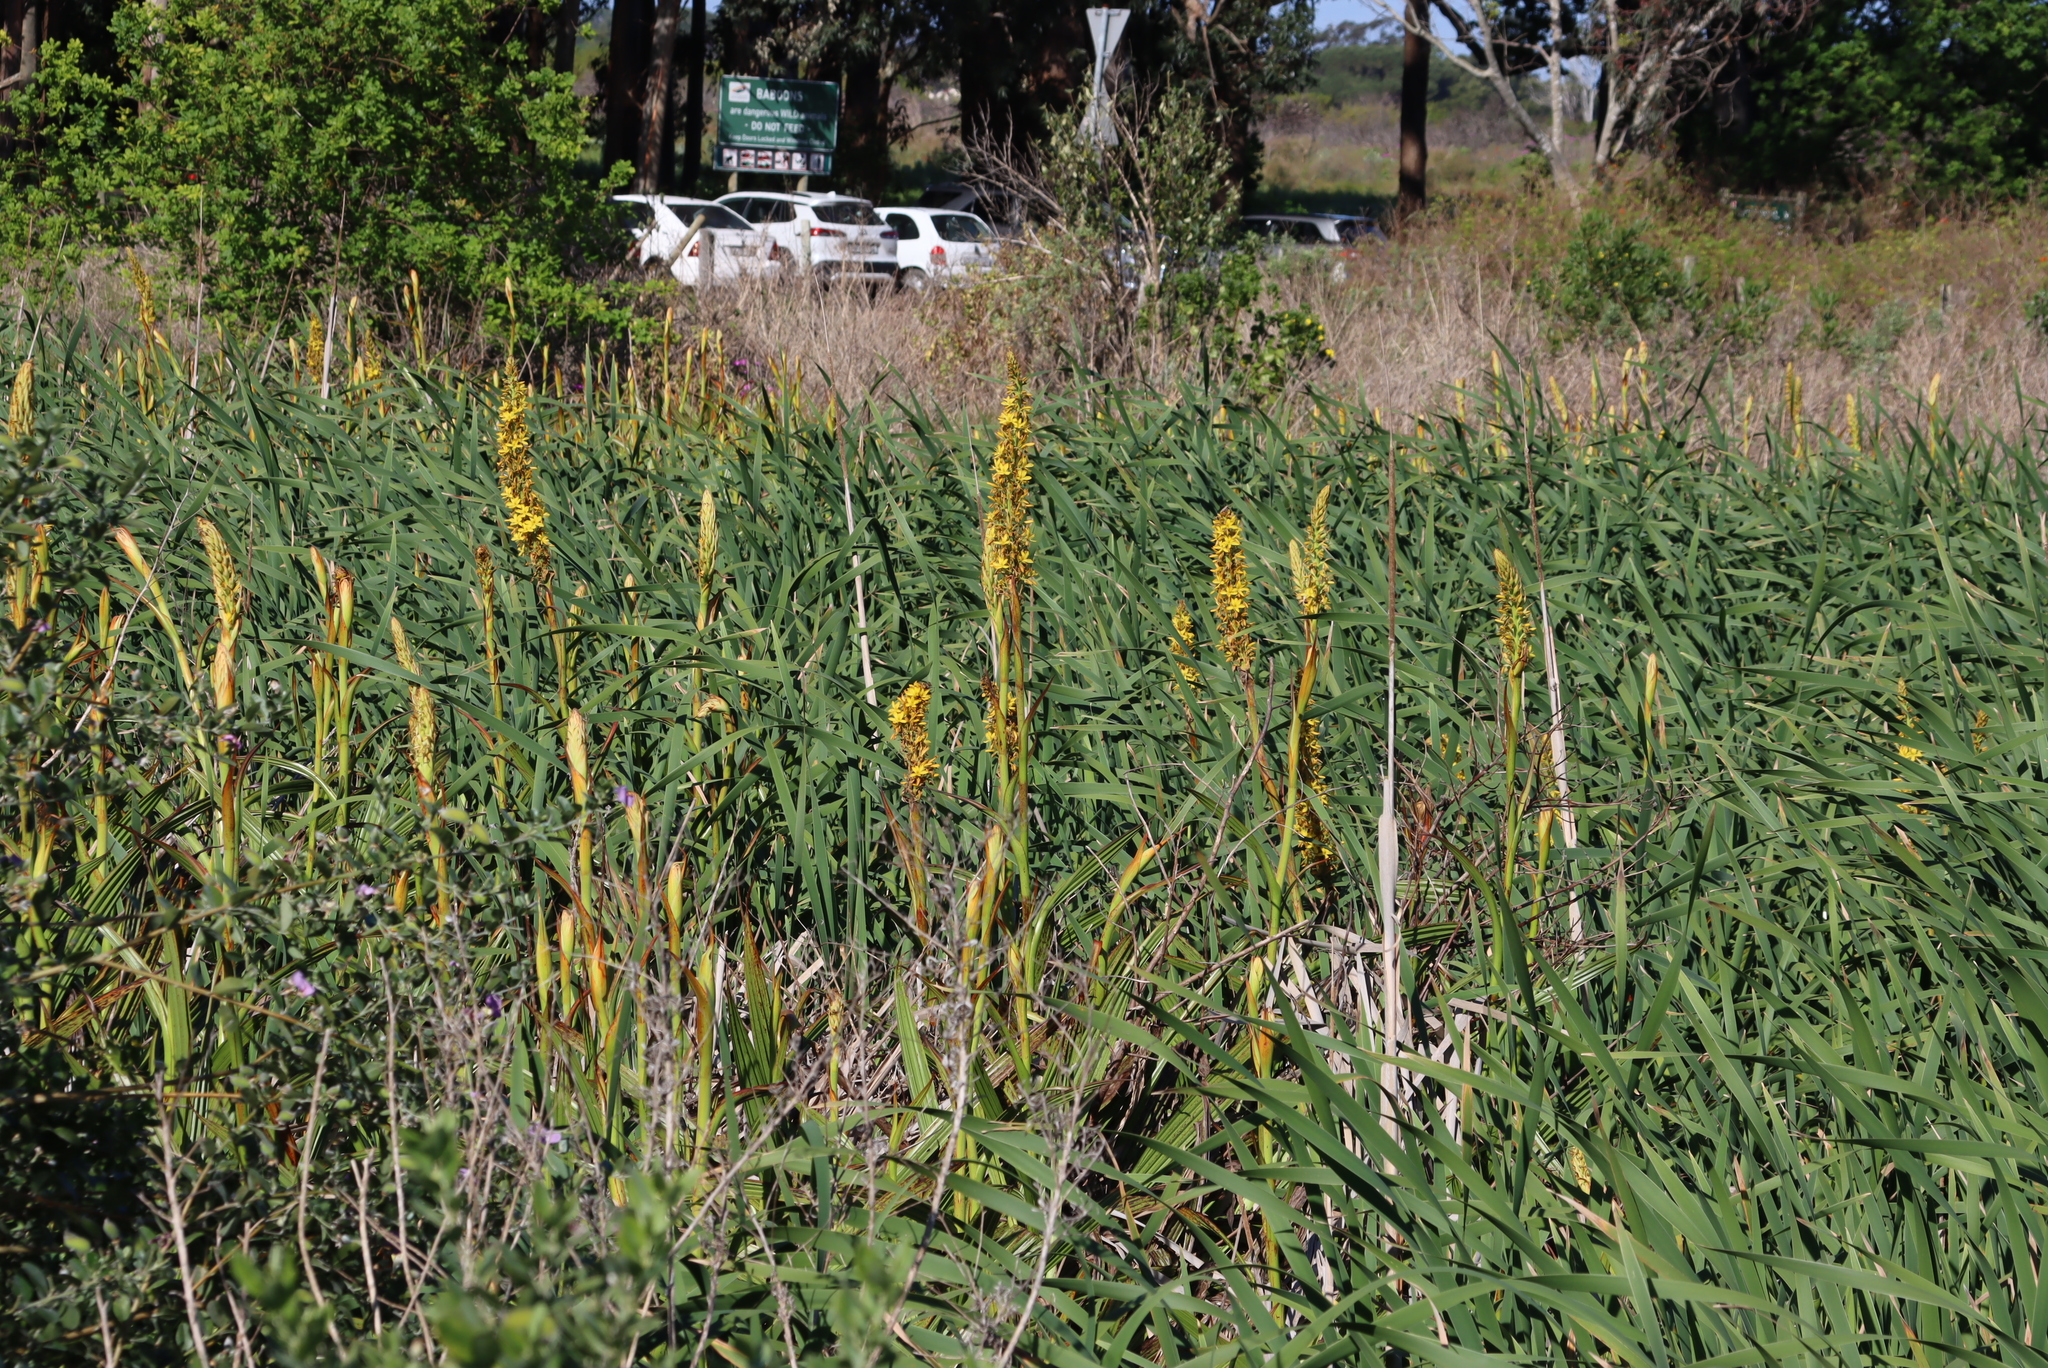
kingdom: Plantae
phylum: Tracheophyta
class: Liliopsida
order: Commelinales
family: Haemodoraceae
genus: Wachendorfia
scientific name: Wachendorfia thyrsiflora
